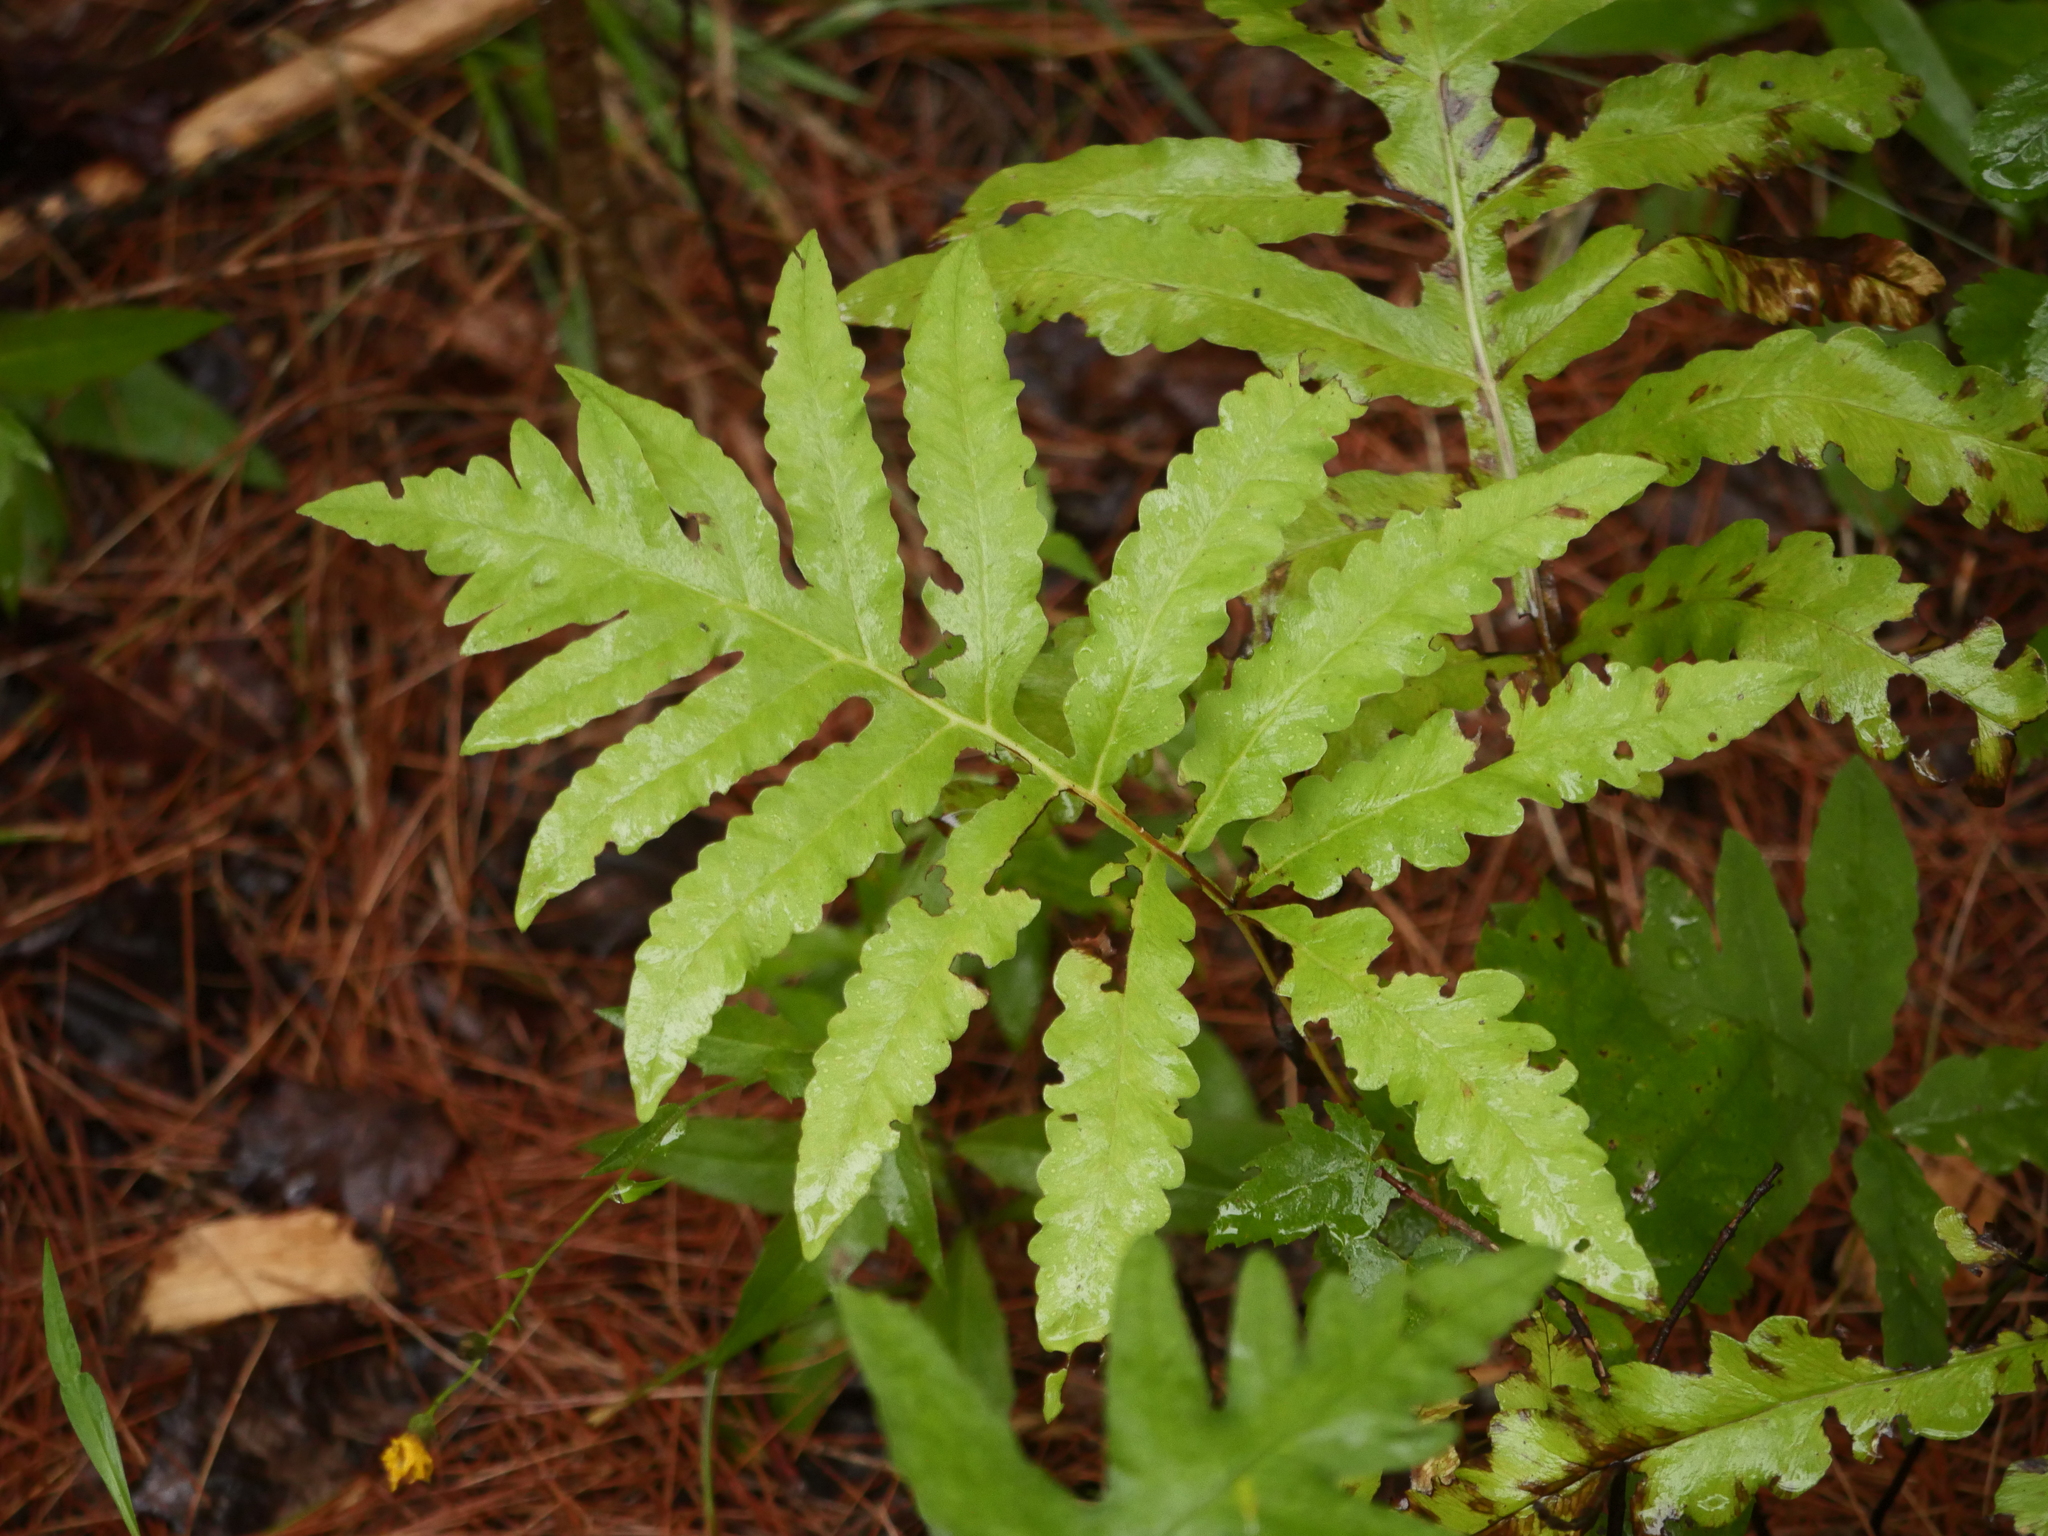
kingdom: Plantae
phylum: Tracheophyta
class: Polypodiopsida
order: Polypodiales
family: Onocleaceae
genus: Onoclea
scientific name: Onoclea sensibilis
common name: Sensitive fern
